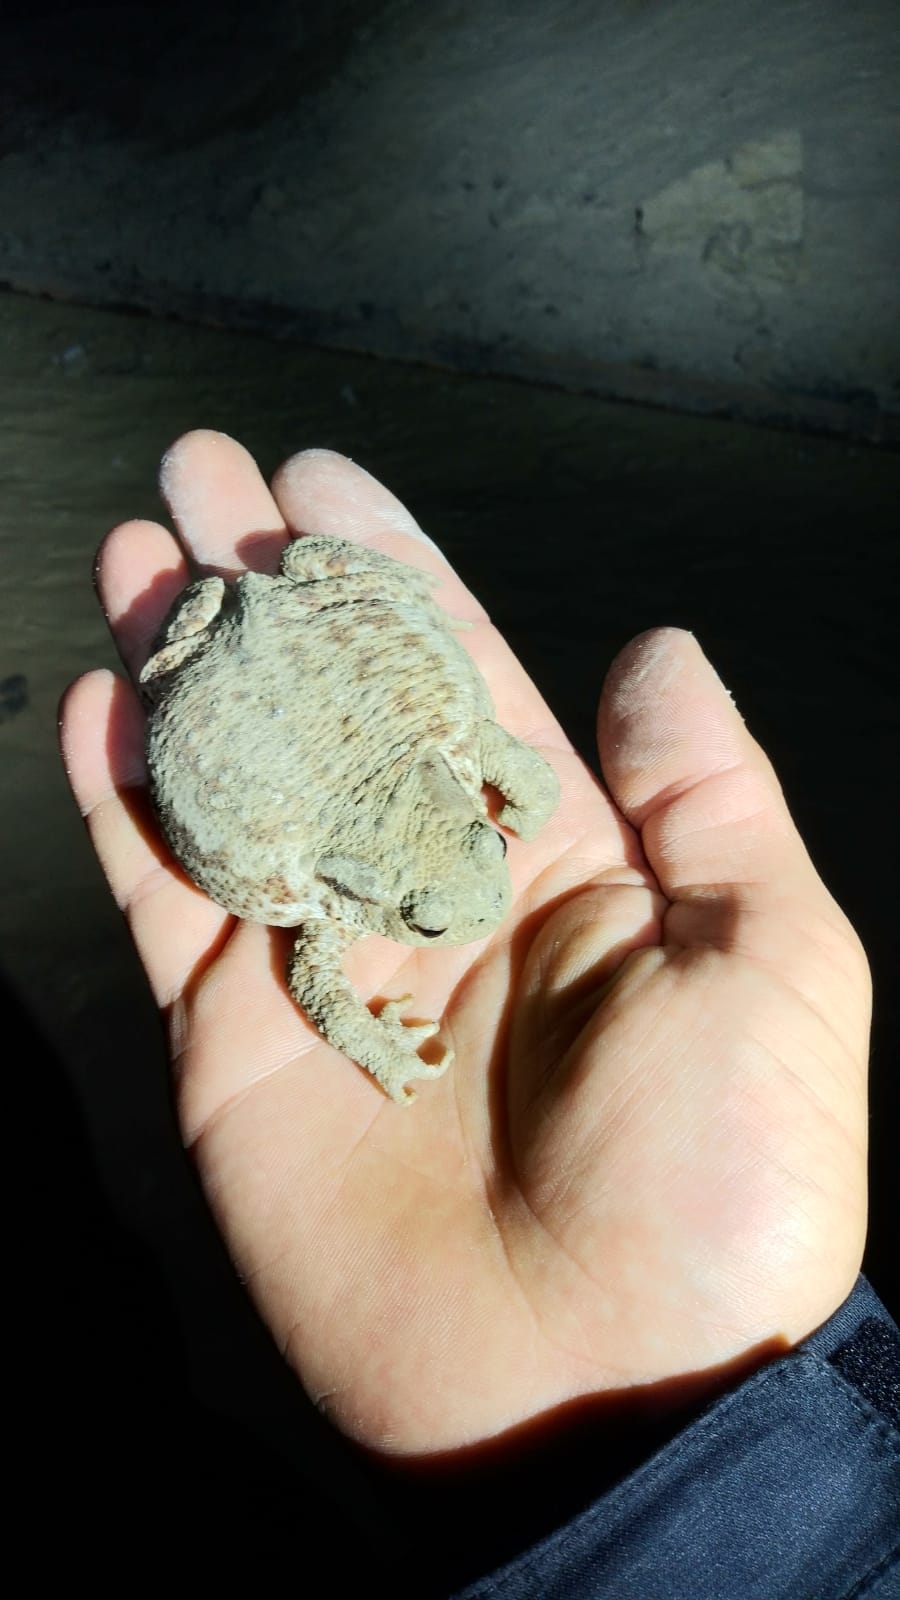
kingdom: Animalia
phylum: Chordata
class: Amphibia
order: Anura
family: Bufonidae
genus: Bufo
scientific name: Bufo bufo
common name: Common toad
